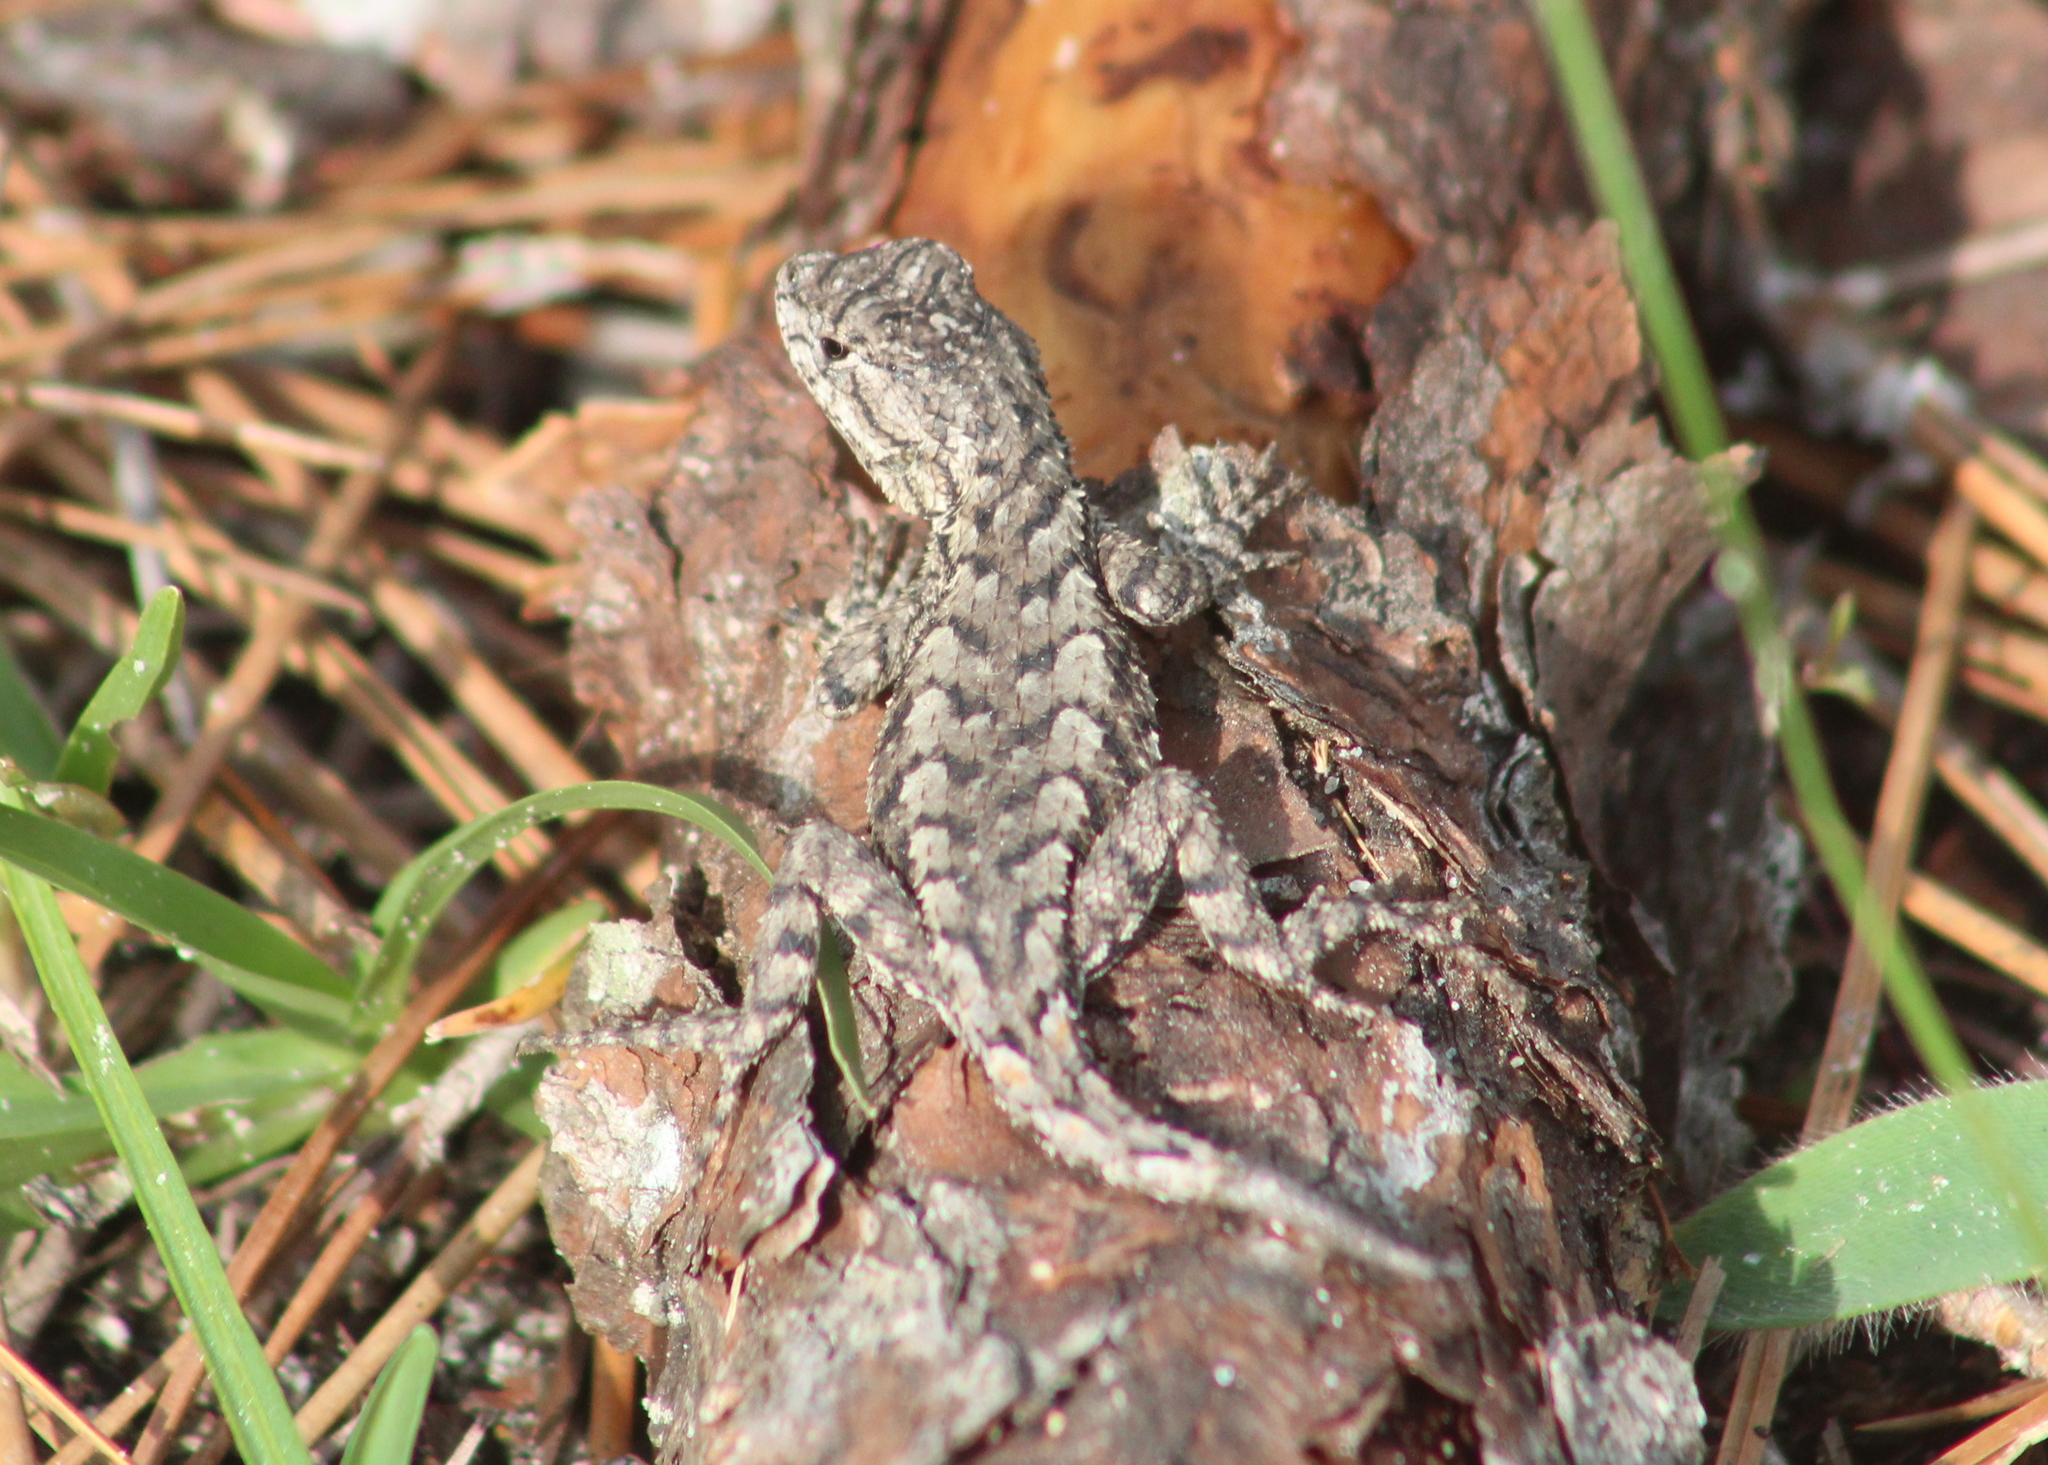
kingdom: Animalia
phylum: Chordata
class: Squamata
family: Phrynosomatidae
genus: Sceloporus
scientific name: Sceloporus undulatus
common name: Eastern fence lizard
